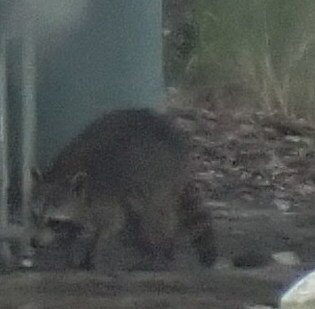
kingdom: Animalia
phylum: Chordata
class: Mammalia
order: Carnivora
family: Procyonidae
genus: Procyon
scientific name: Procyon lotor
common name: Raccoon
